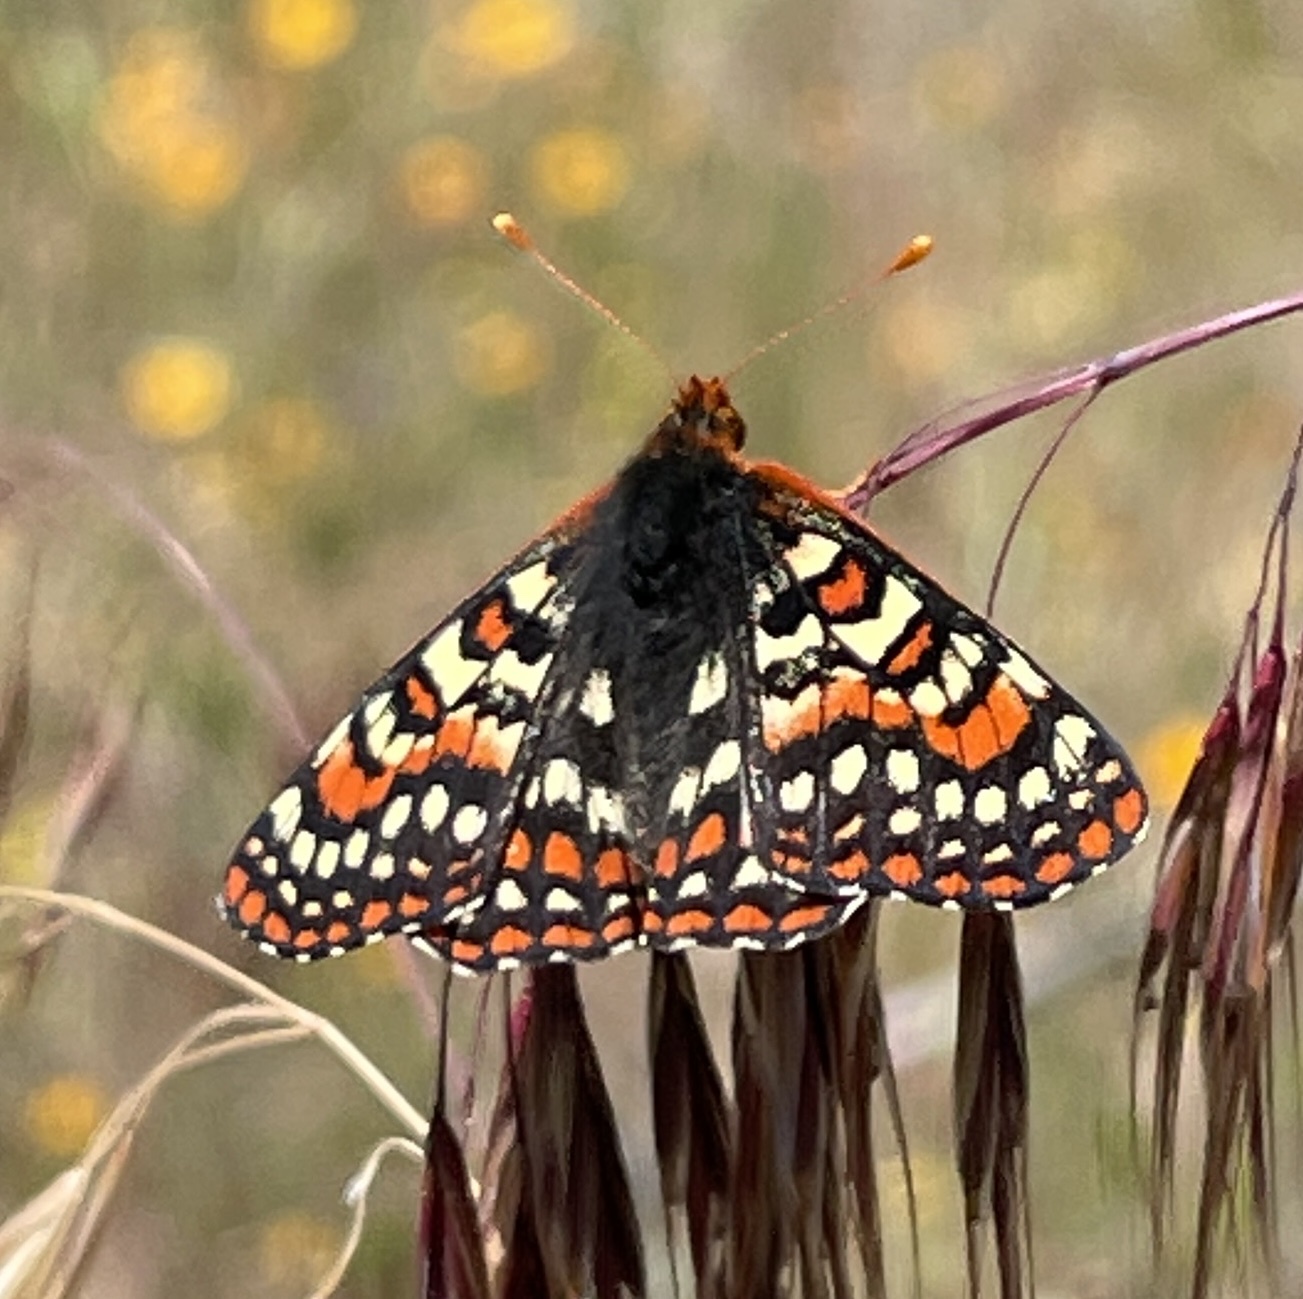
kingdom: Animalia
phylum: Arthropoda
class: Insecta
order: Lepidoptera
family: Nymphalidae
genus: Occidryas
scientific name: Occidryas editha
